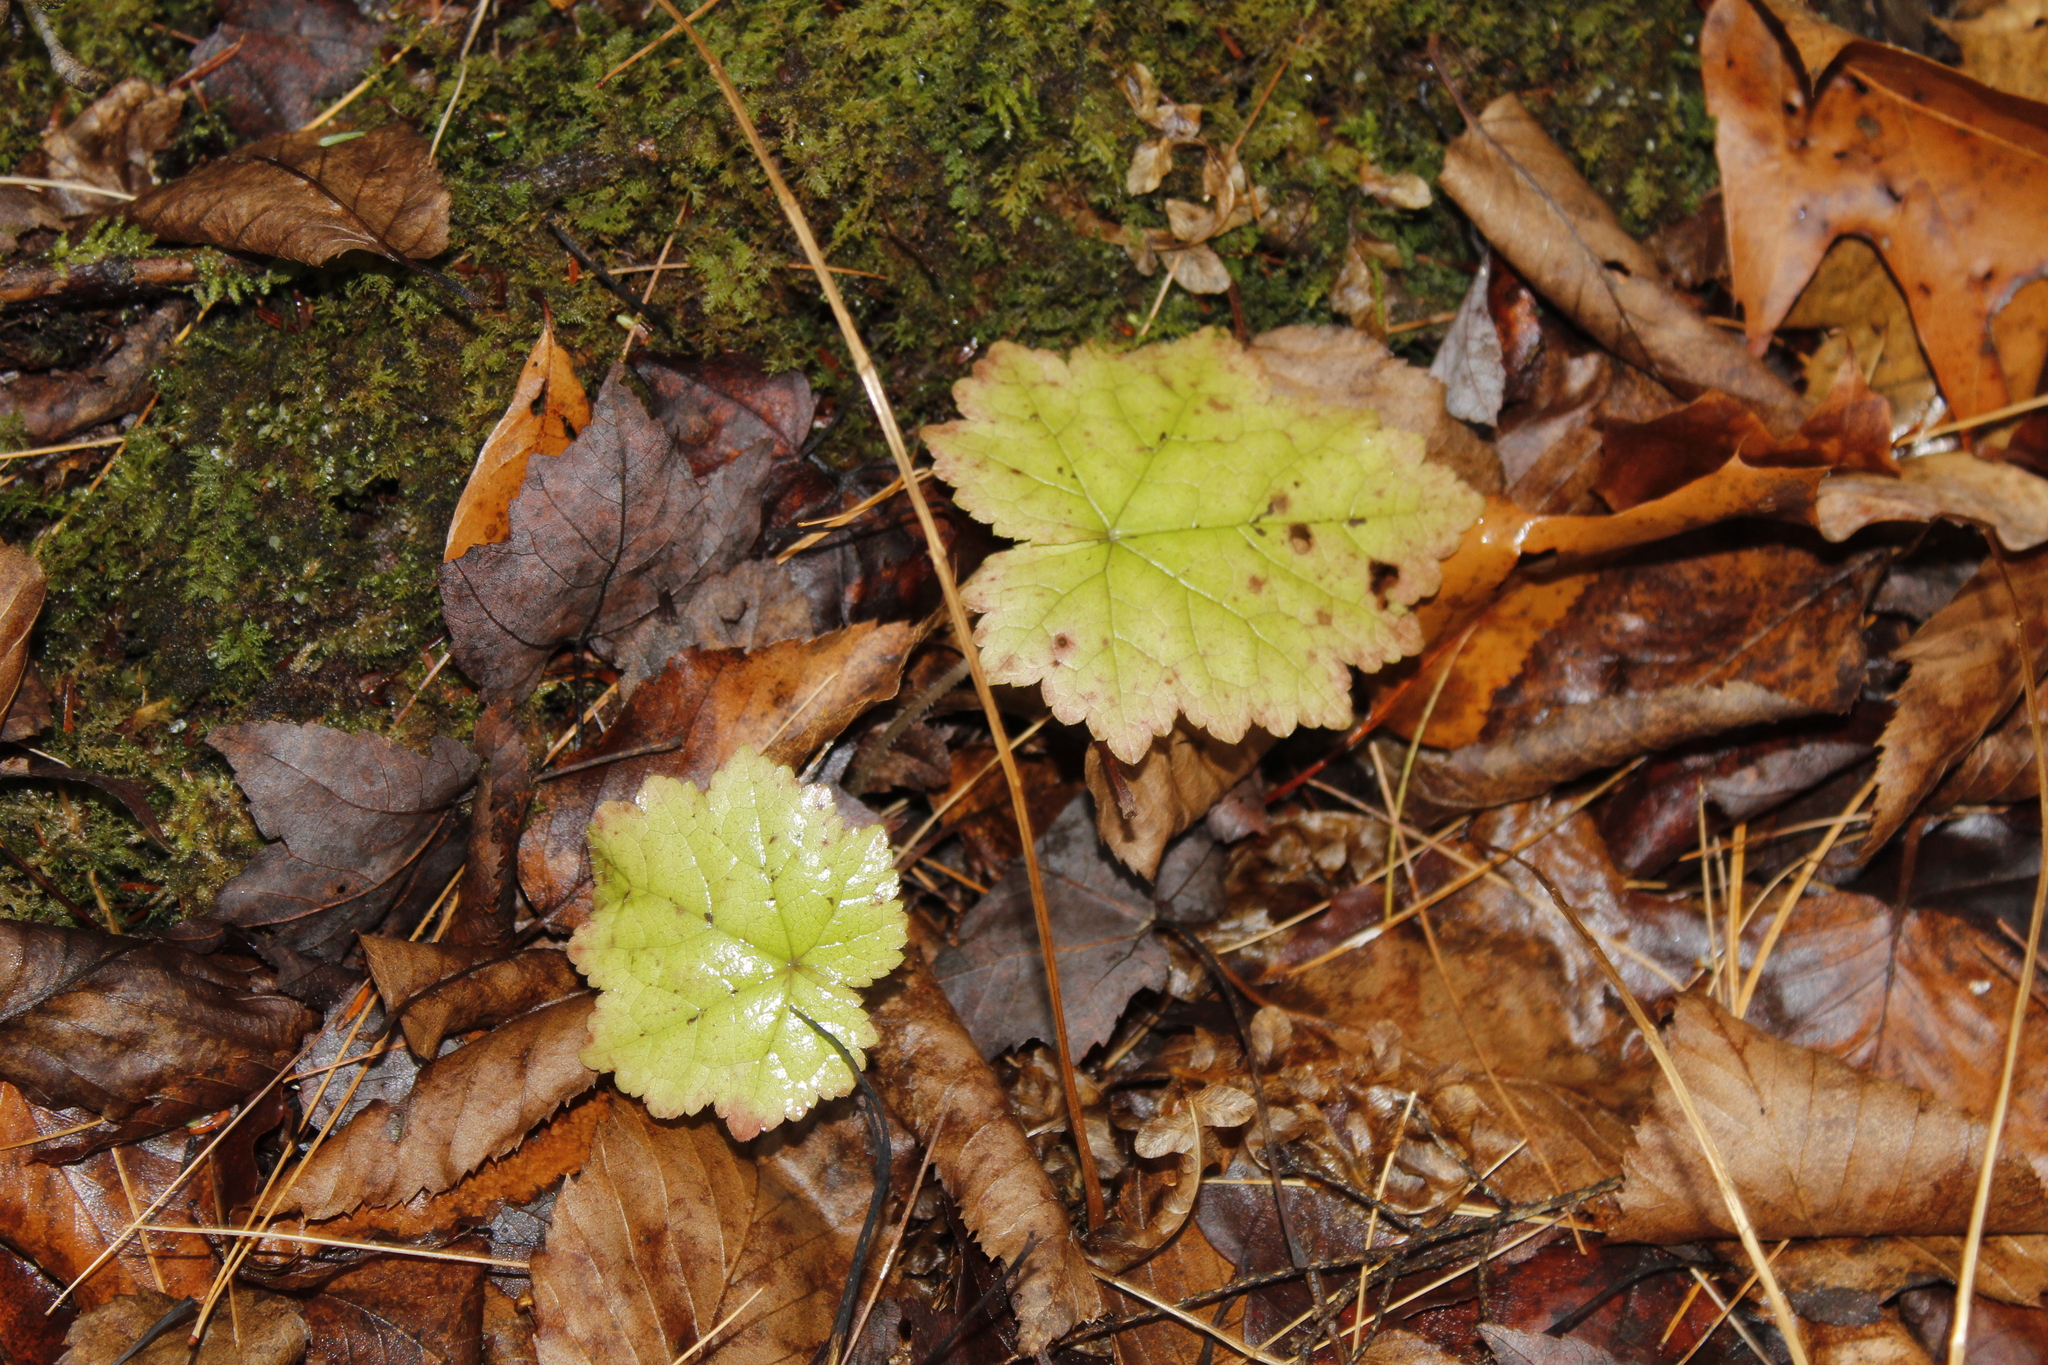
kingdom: Plantae
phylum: Tracheophyta
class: Magnoliopsida
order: Saxifragales
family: Saxifragaceae
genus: Tiarella
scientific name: Tiarella stolonifera
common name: Stoloniferous foamflower
